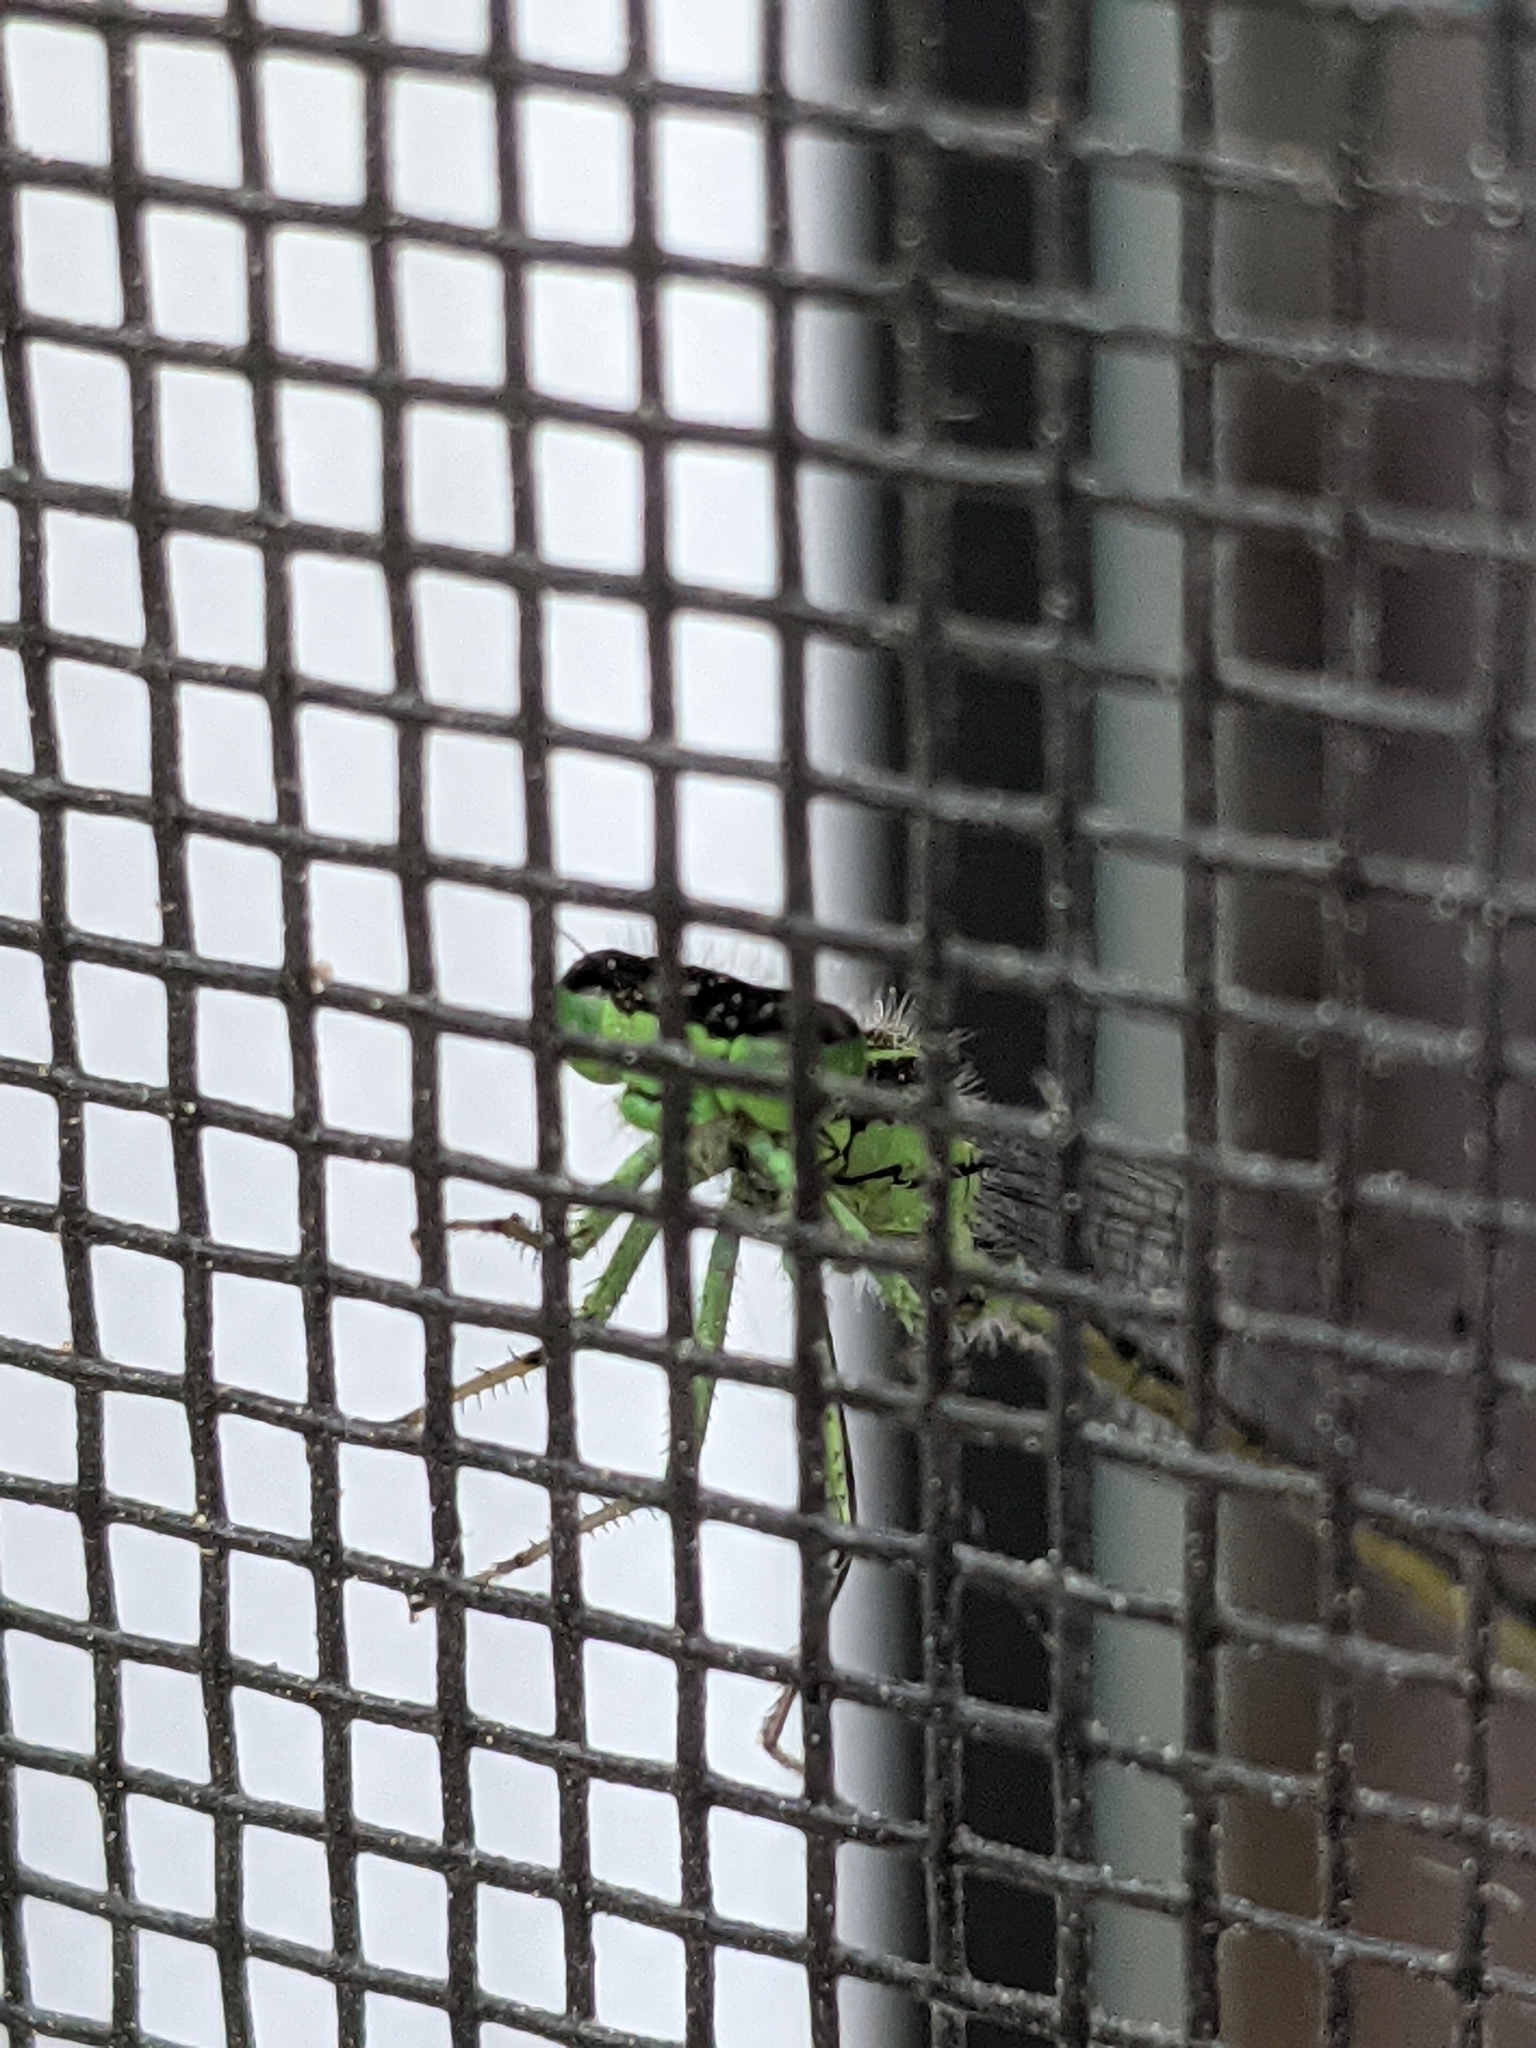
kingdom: Animalia
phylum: Arthropoda
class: Insecta
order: Odonata
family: Coenagrionidae
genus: Ischnura
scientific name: Ischnura verticalis
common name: Eastern forktail
